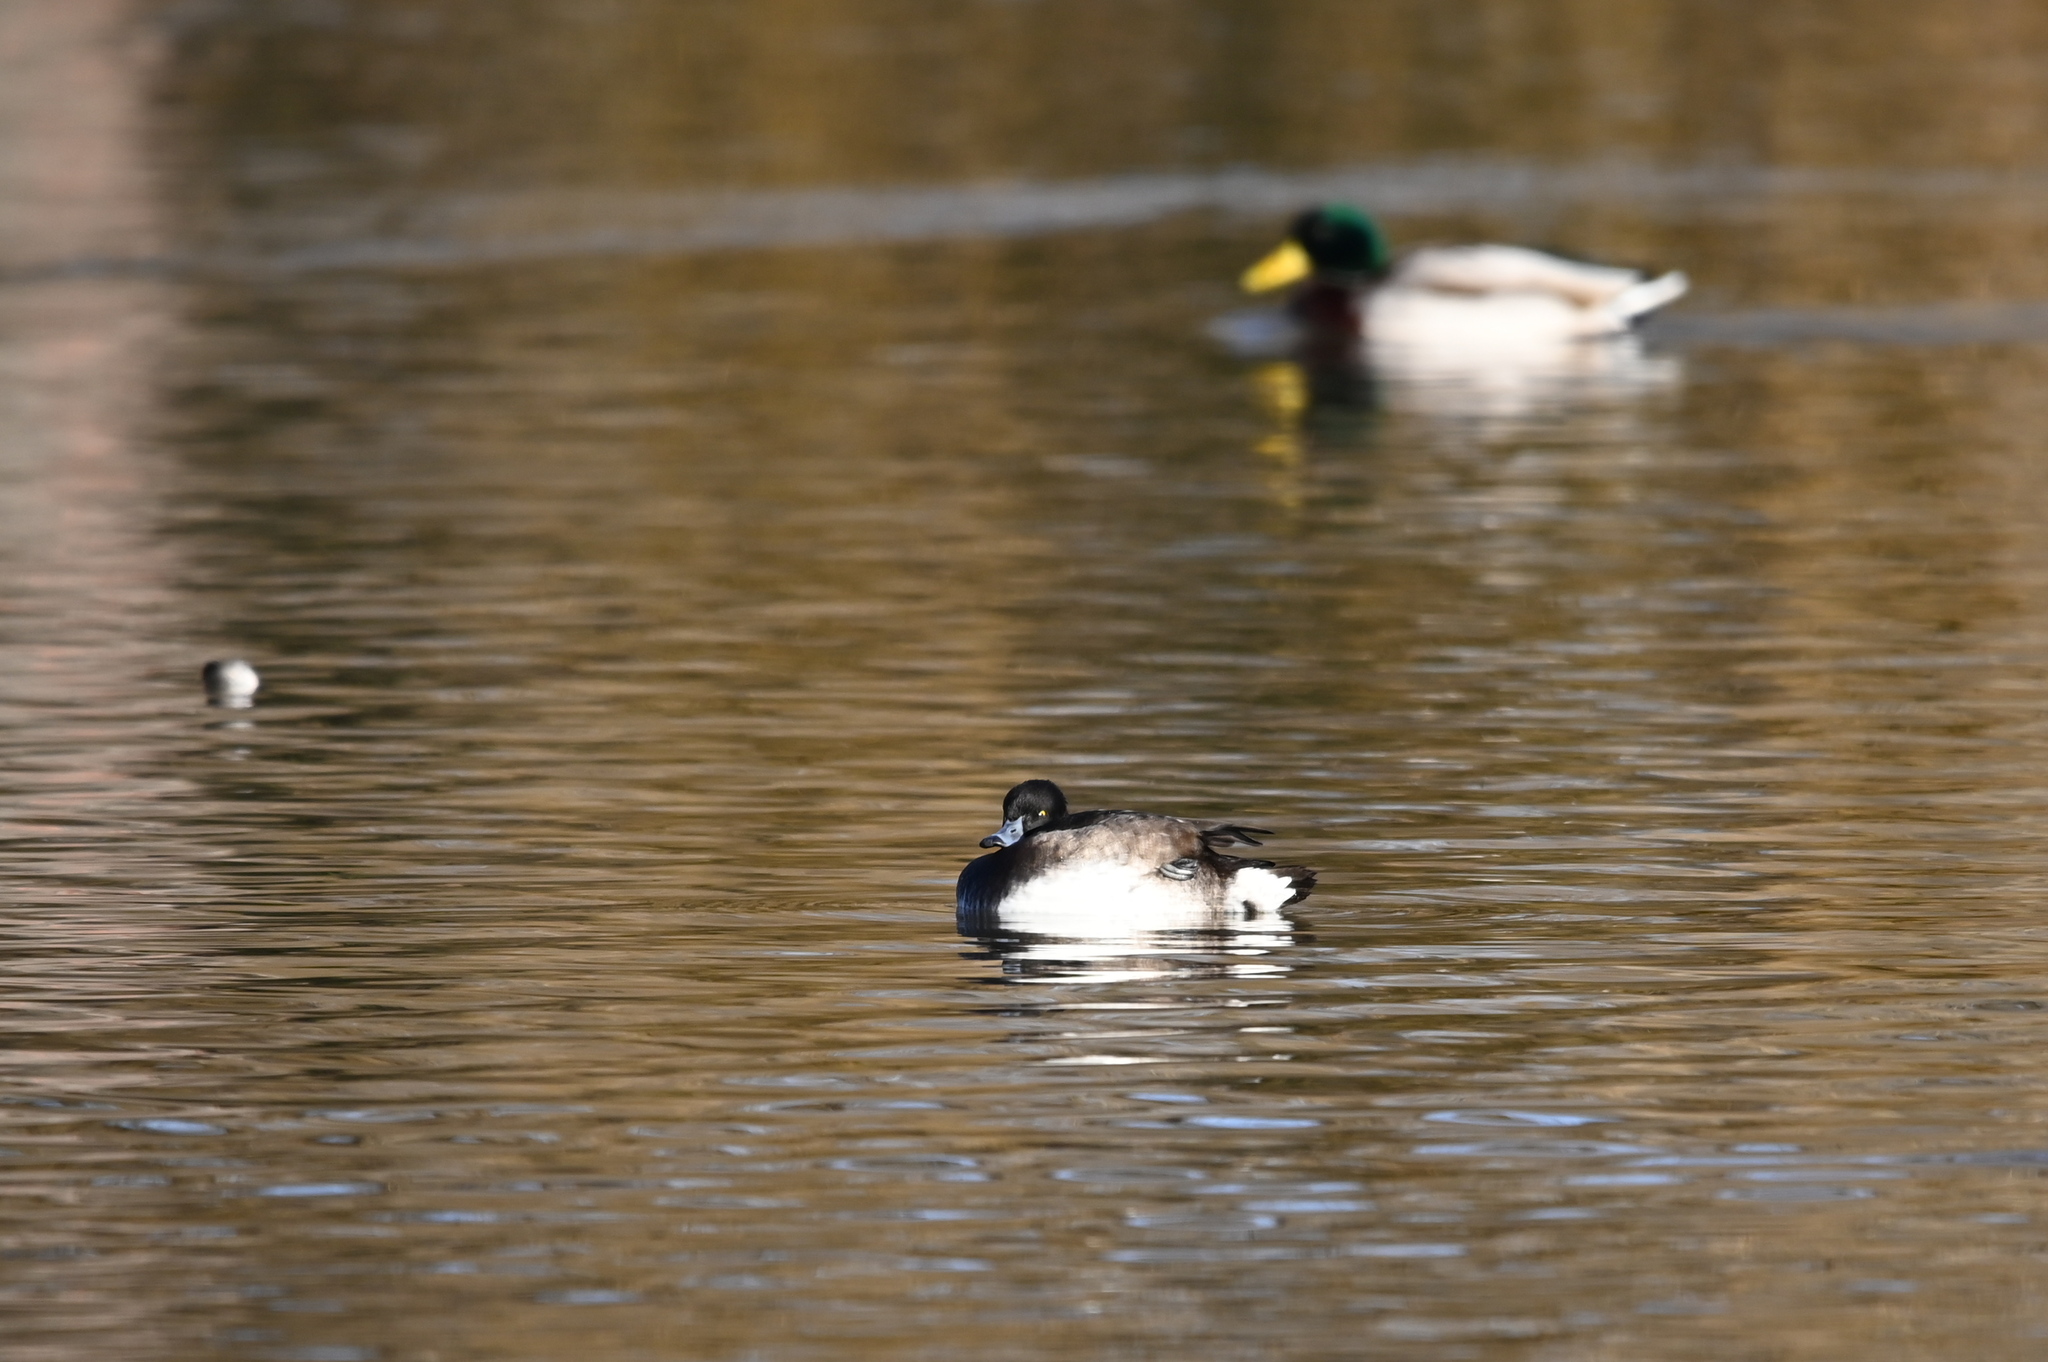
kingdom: Animalia
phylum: Chordata
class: Aves
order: Anseriformes
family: Anatidae
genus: Aythya
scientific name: Aythya fuligula
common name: Tufted duck
